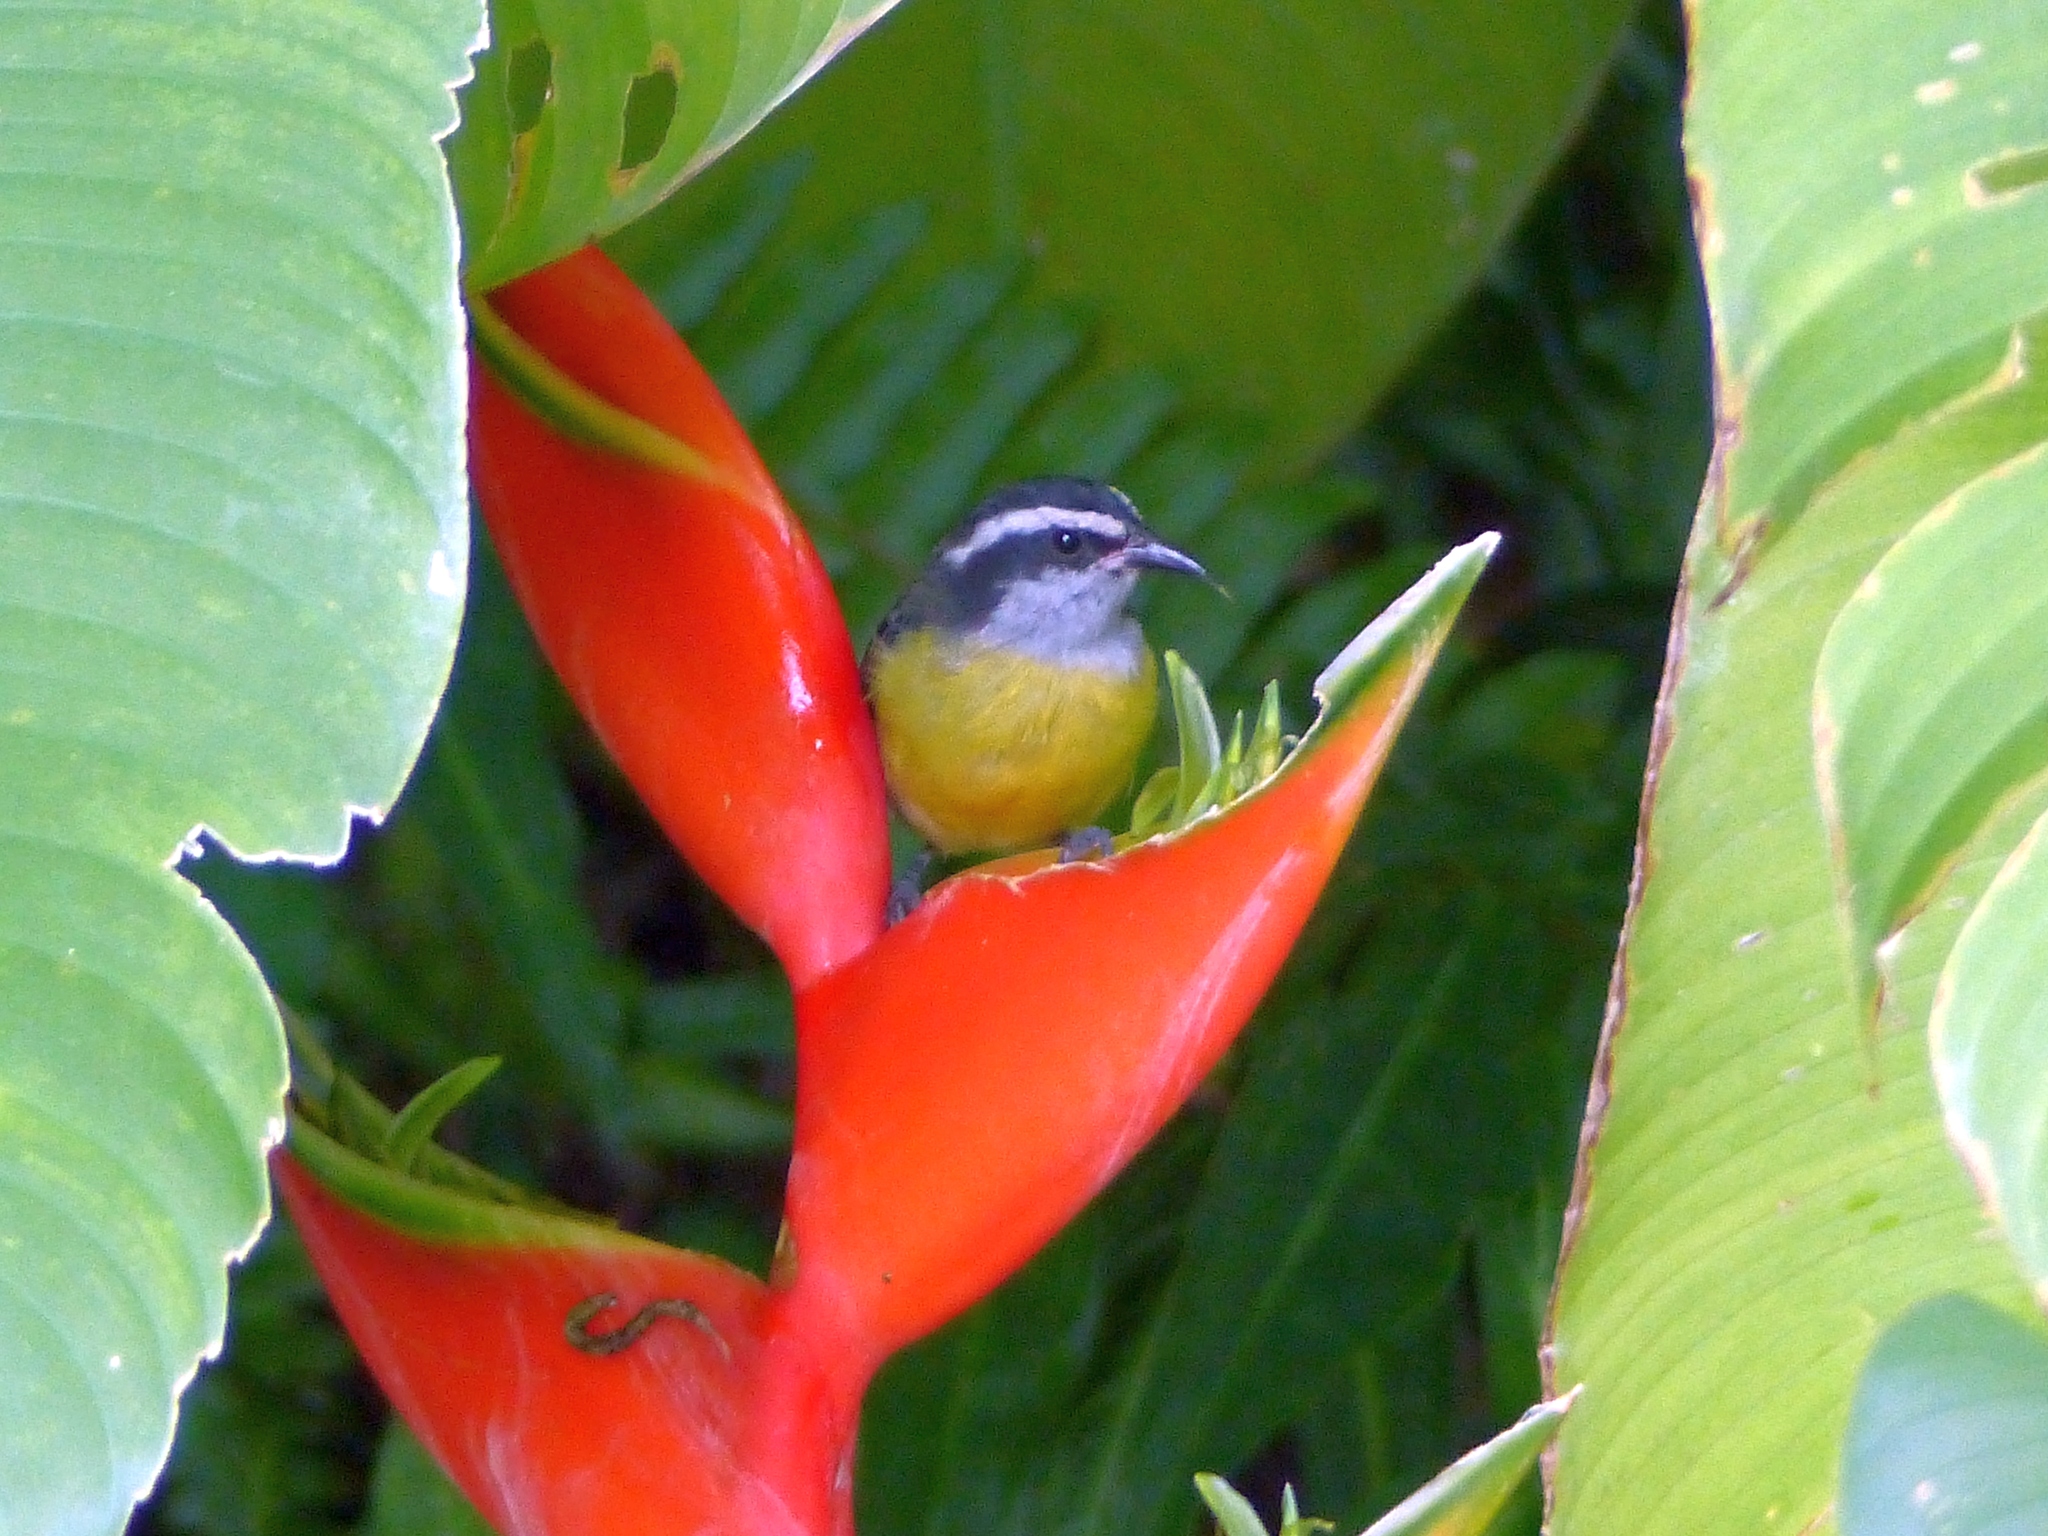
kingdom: Animalia
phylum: Chordata
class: Aves
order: Passeriformes
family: Thraupidae
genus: Coereba
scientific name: Coereba flaveola
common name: Bananaquit
